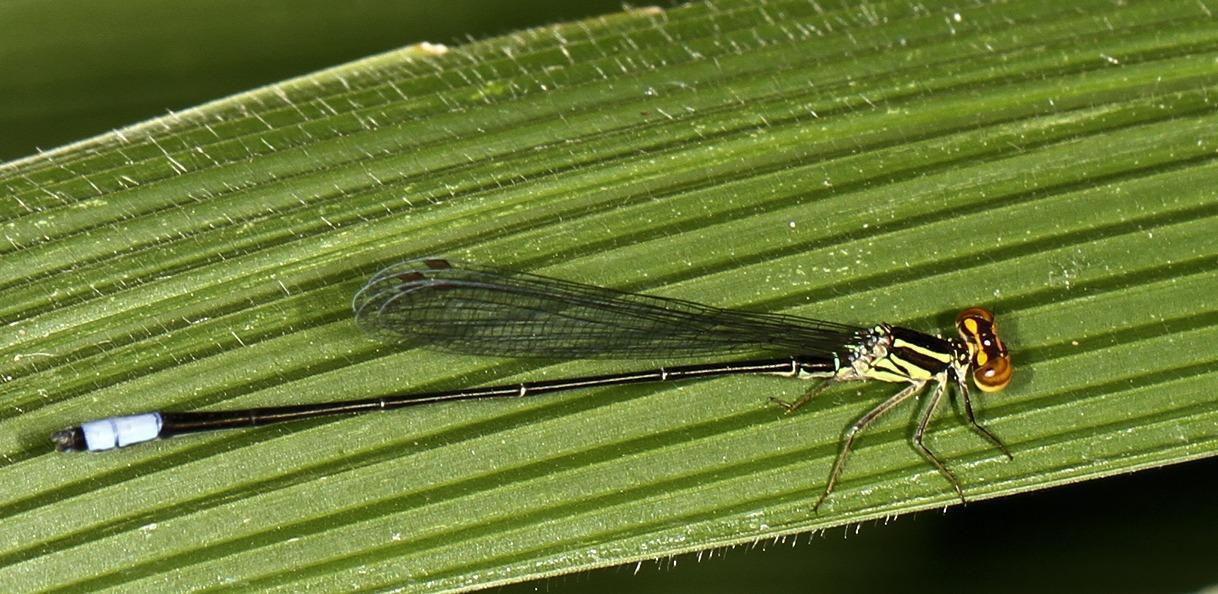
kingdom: Animalia
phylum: Arthropoda
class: Insecta
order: Odonata
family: Coenagrionidae
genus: Pseudagrion
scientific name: Pseudagrion hageni
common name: Painted sprite
